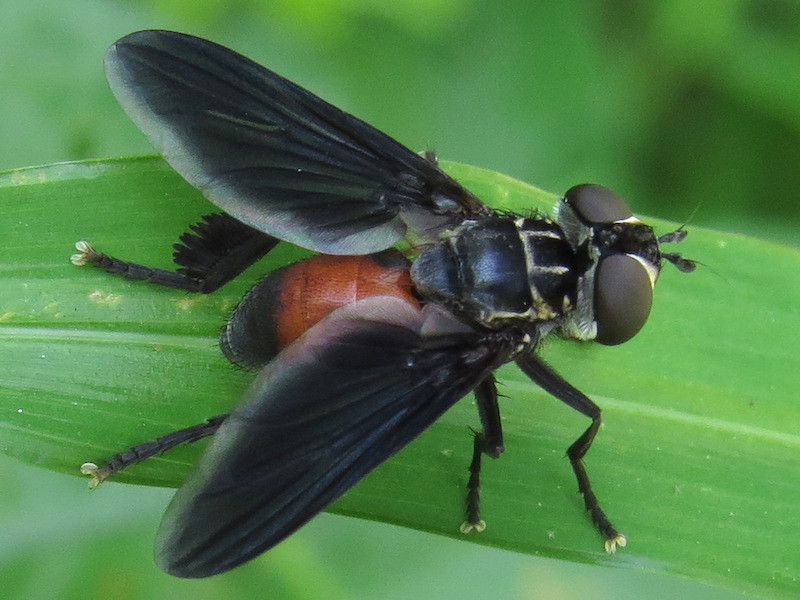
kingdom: Animalia
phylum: Arthropoda
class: Insecta
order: Diptera
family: Tachinidae
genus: Trichopoda
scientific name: Trichopoda pennipes
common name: Tachinid fly
